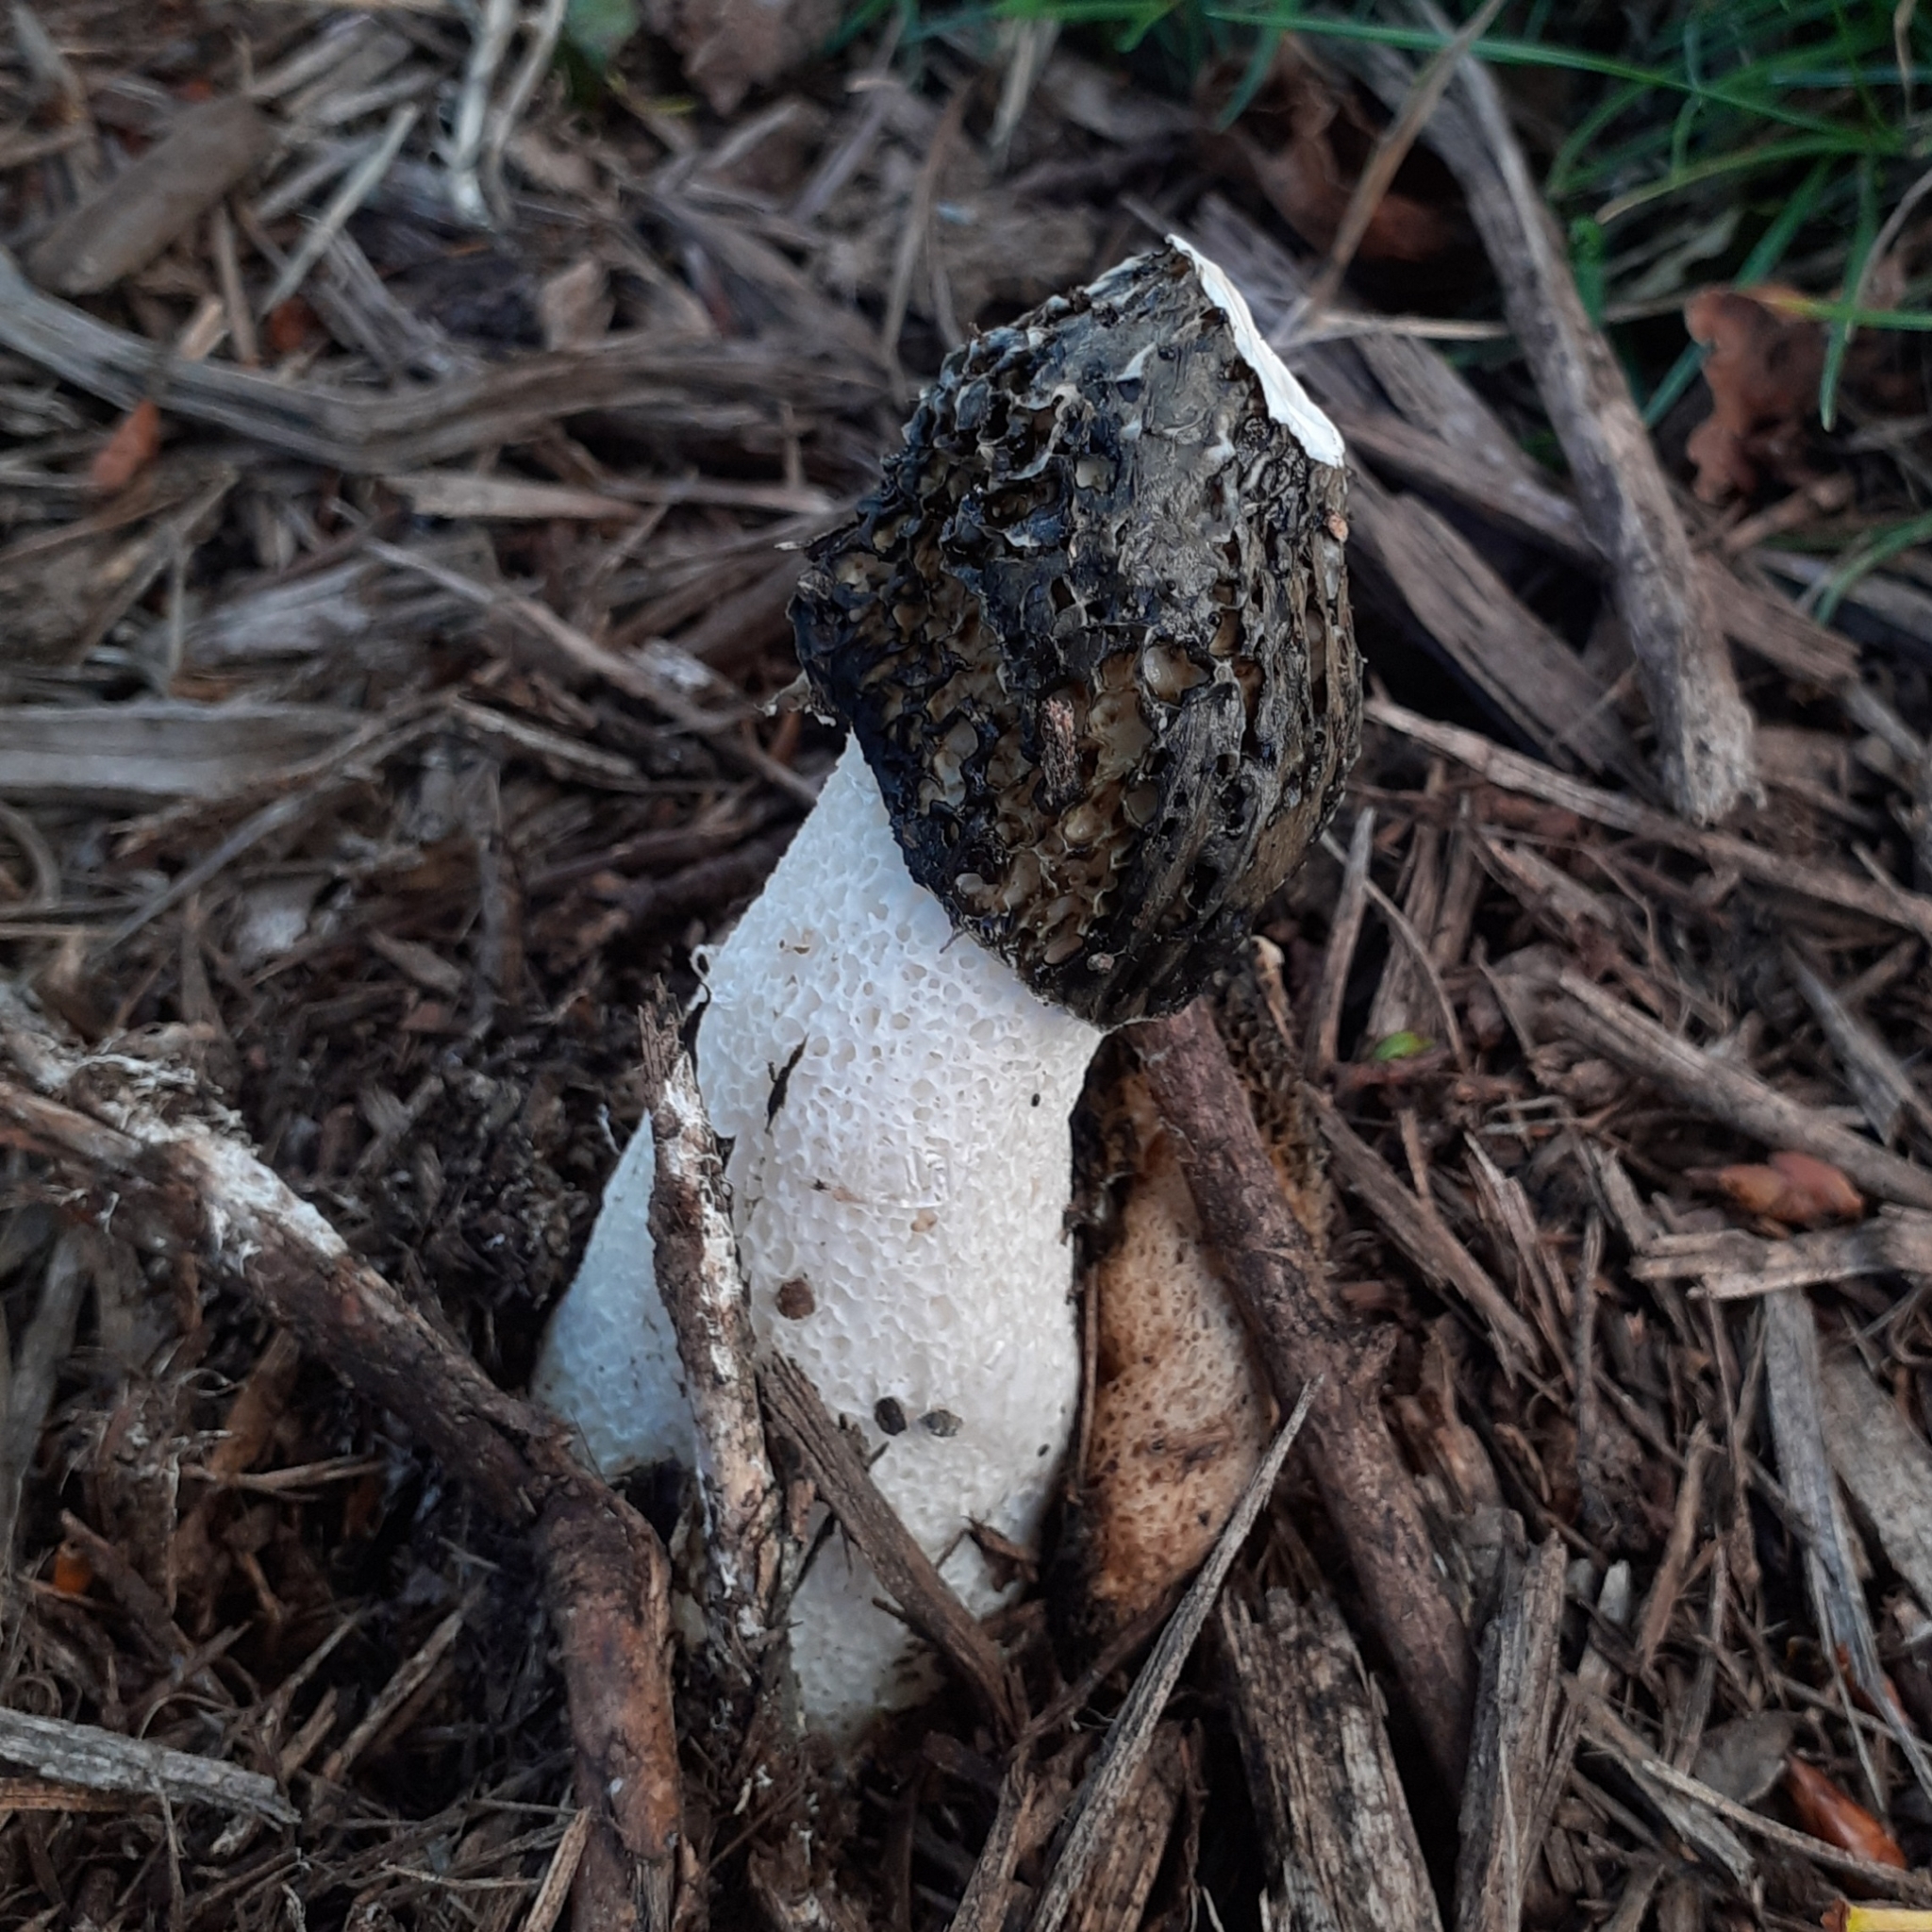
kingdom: Fungi
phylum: Basidiomycota
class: Agaricomycetes
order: Phallales
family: Phallaceae
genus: Phallus
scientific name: Phallus impudicus
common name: Common stinkhorn
